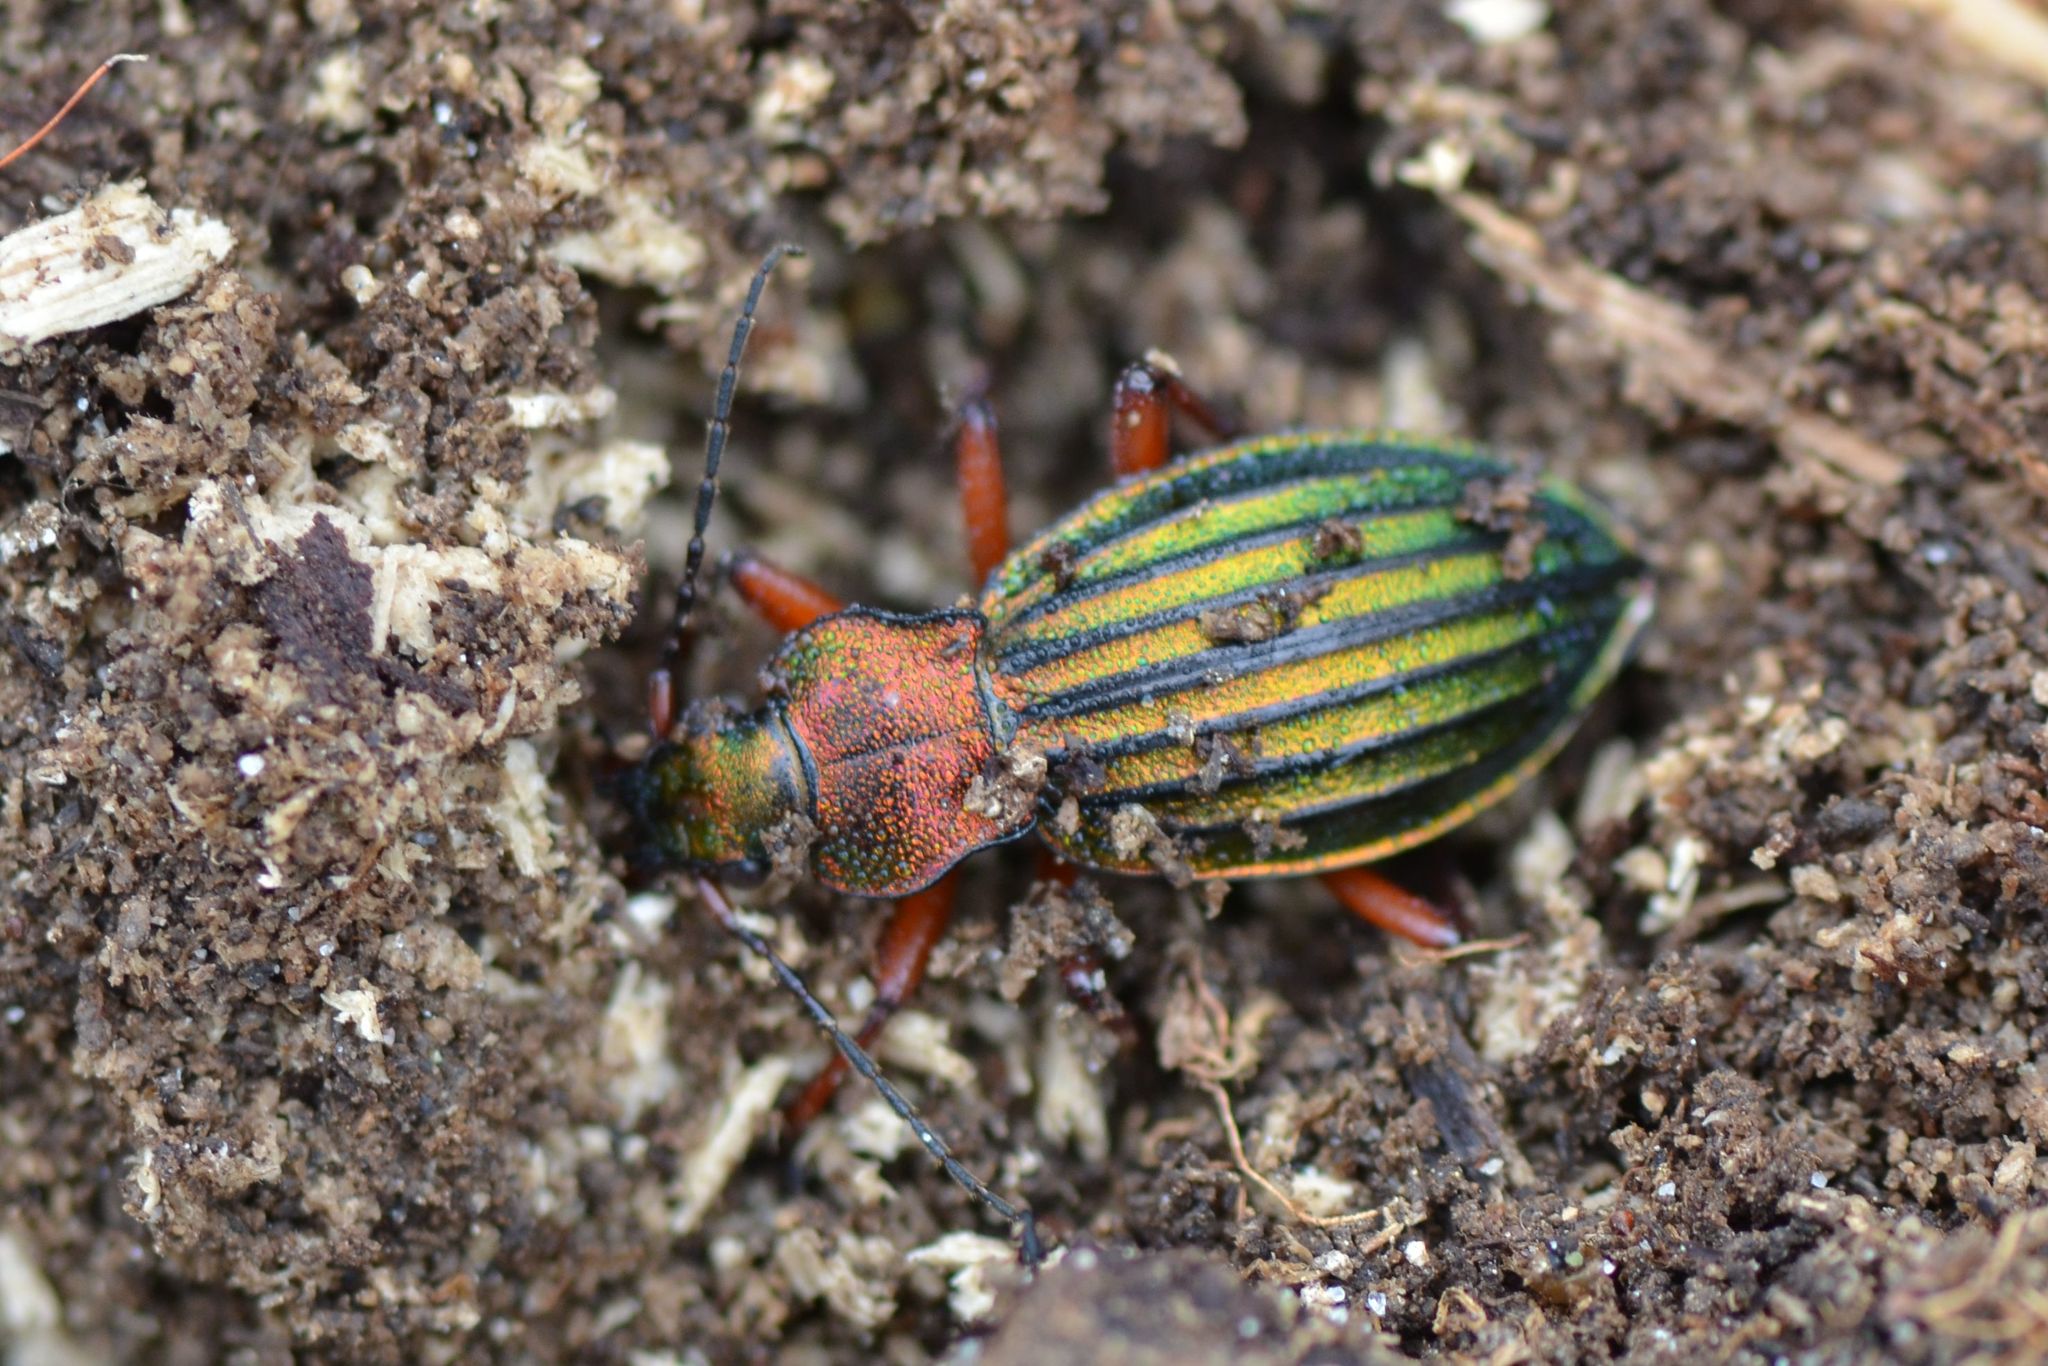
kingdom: Animalia
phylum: Arthropoda
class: Insecta
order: Coleoptera
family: Carabidae
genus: Carabus
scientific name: Carabus auronitens
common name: Carabus auronitens
